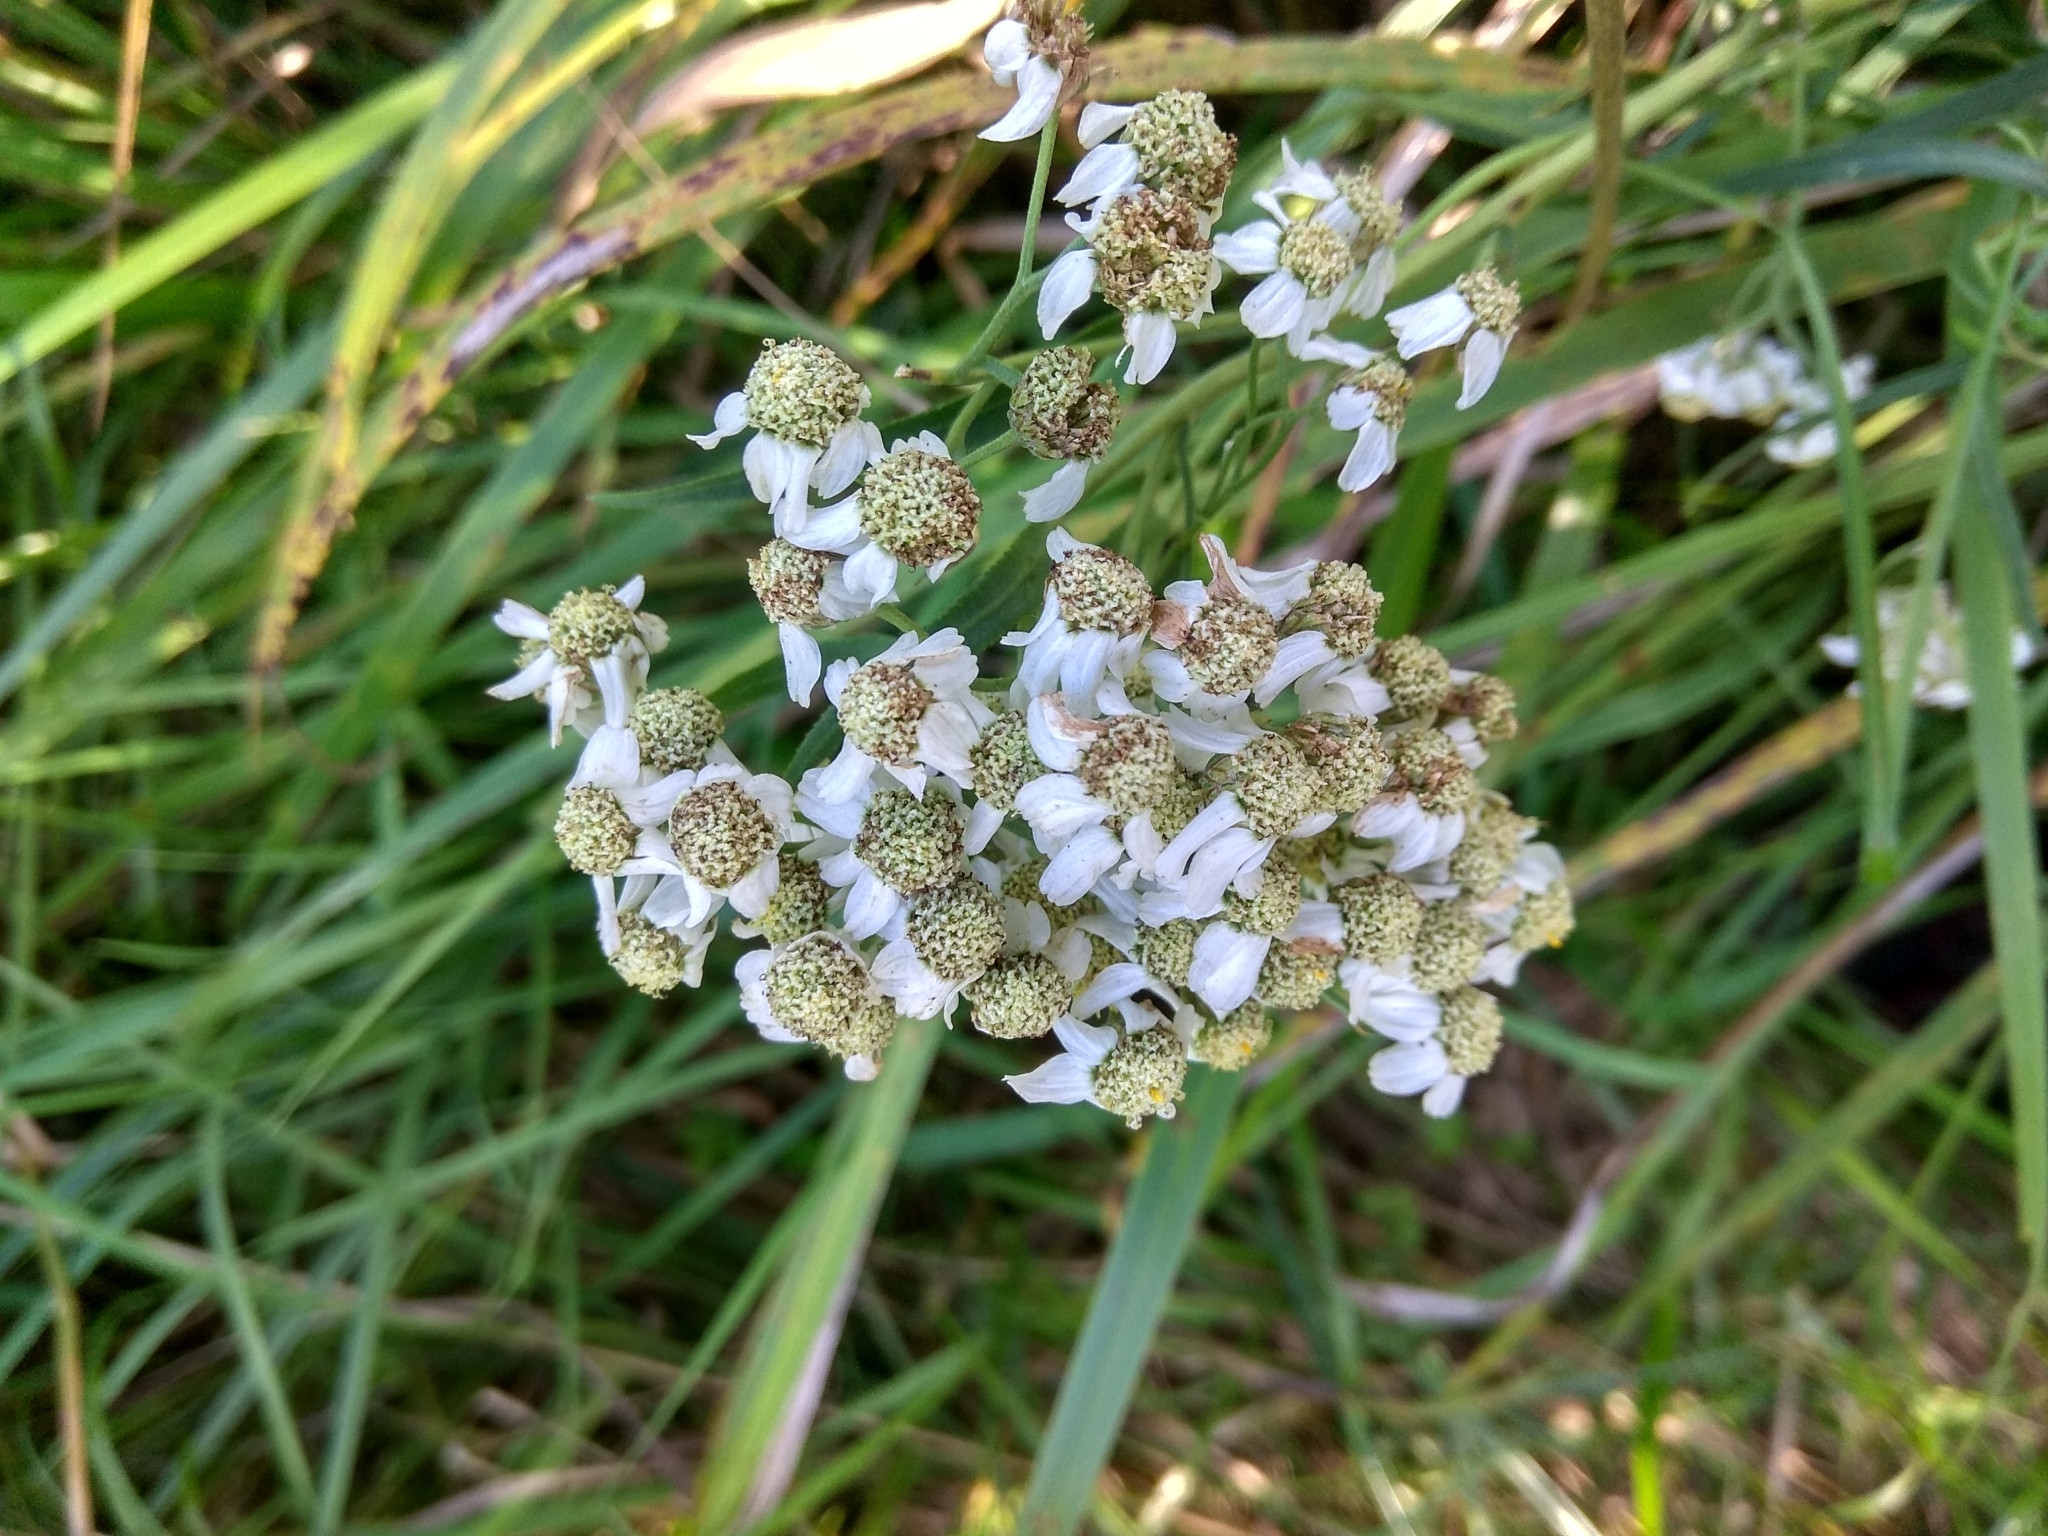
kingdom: Plantae
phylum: Tracheophyta
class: Magnoliopsida
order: Asterales
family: Asteraceae
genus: Achillea
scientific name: Achillea salicifolia
